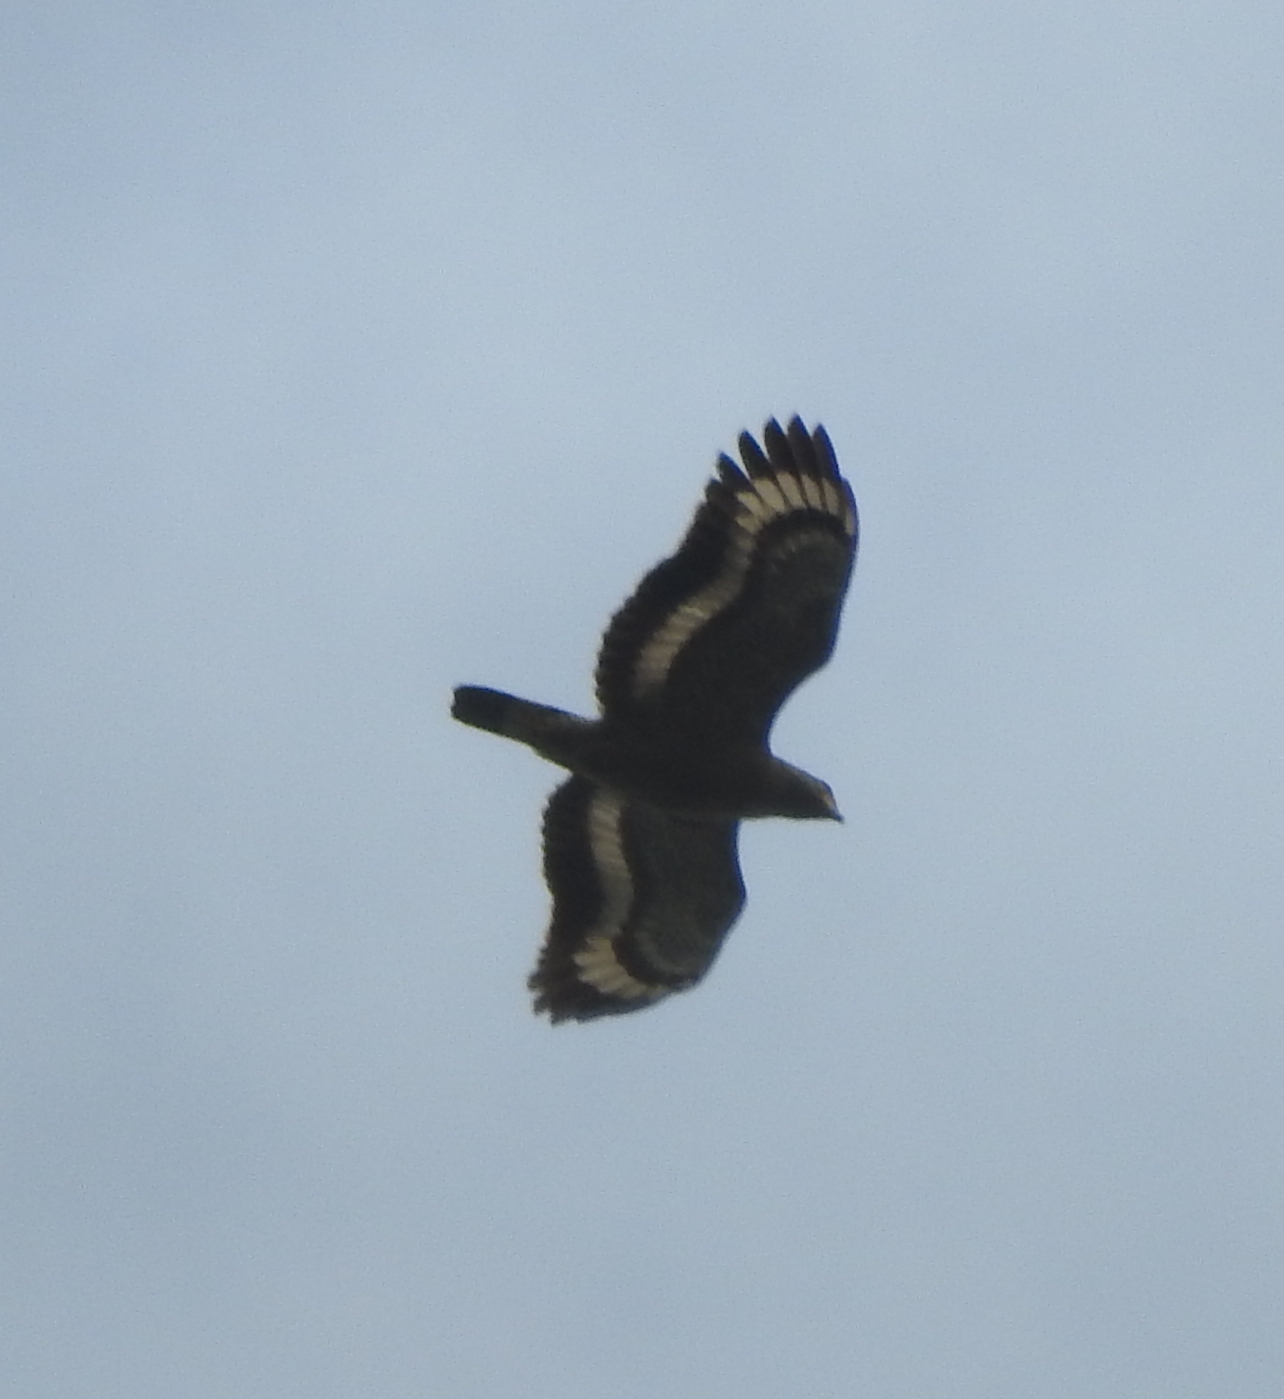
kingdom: Animalia
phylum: Chordata
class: Aves
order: Accipitriformes
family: Accipitridae
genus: Spilornis
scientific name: Spilornis cheela
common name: Crested serpent eagle
